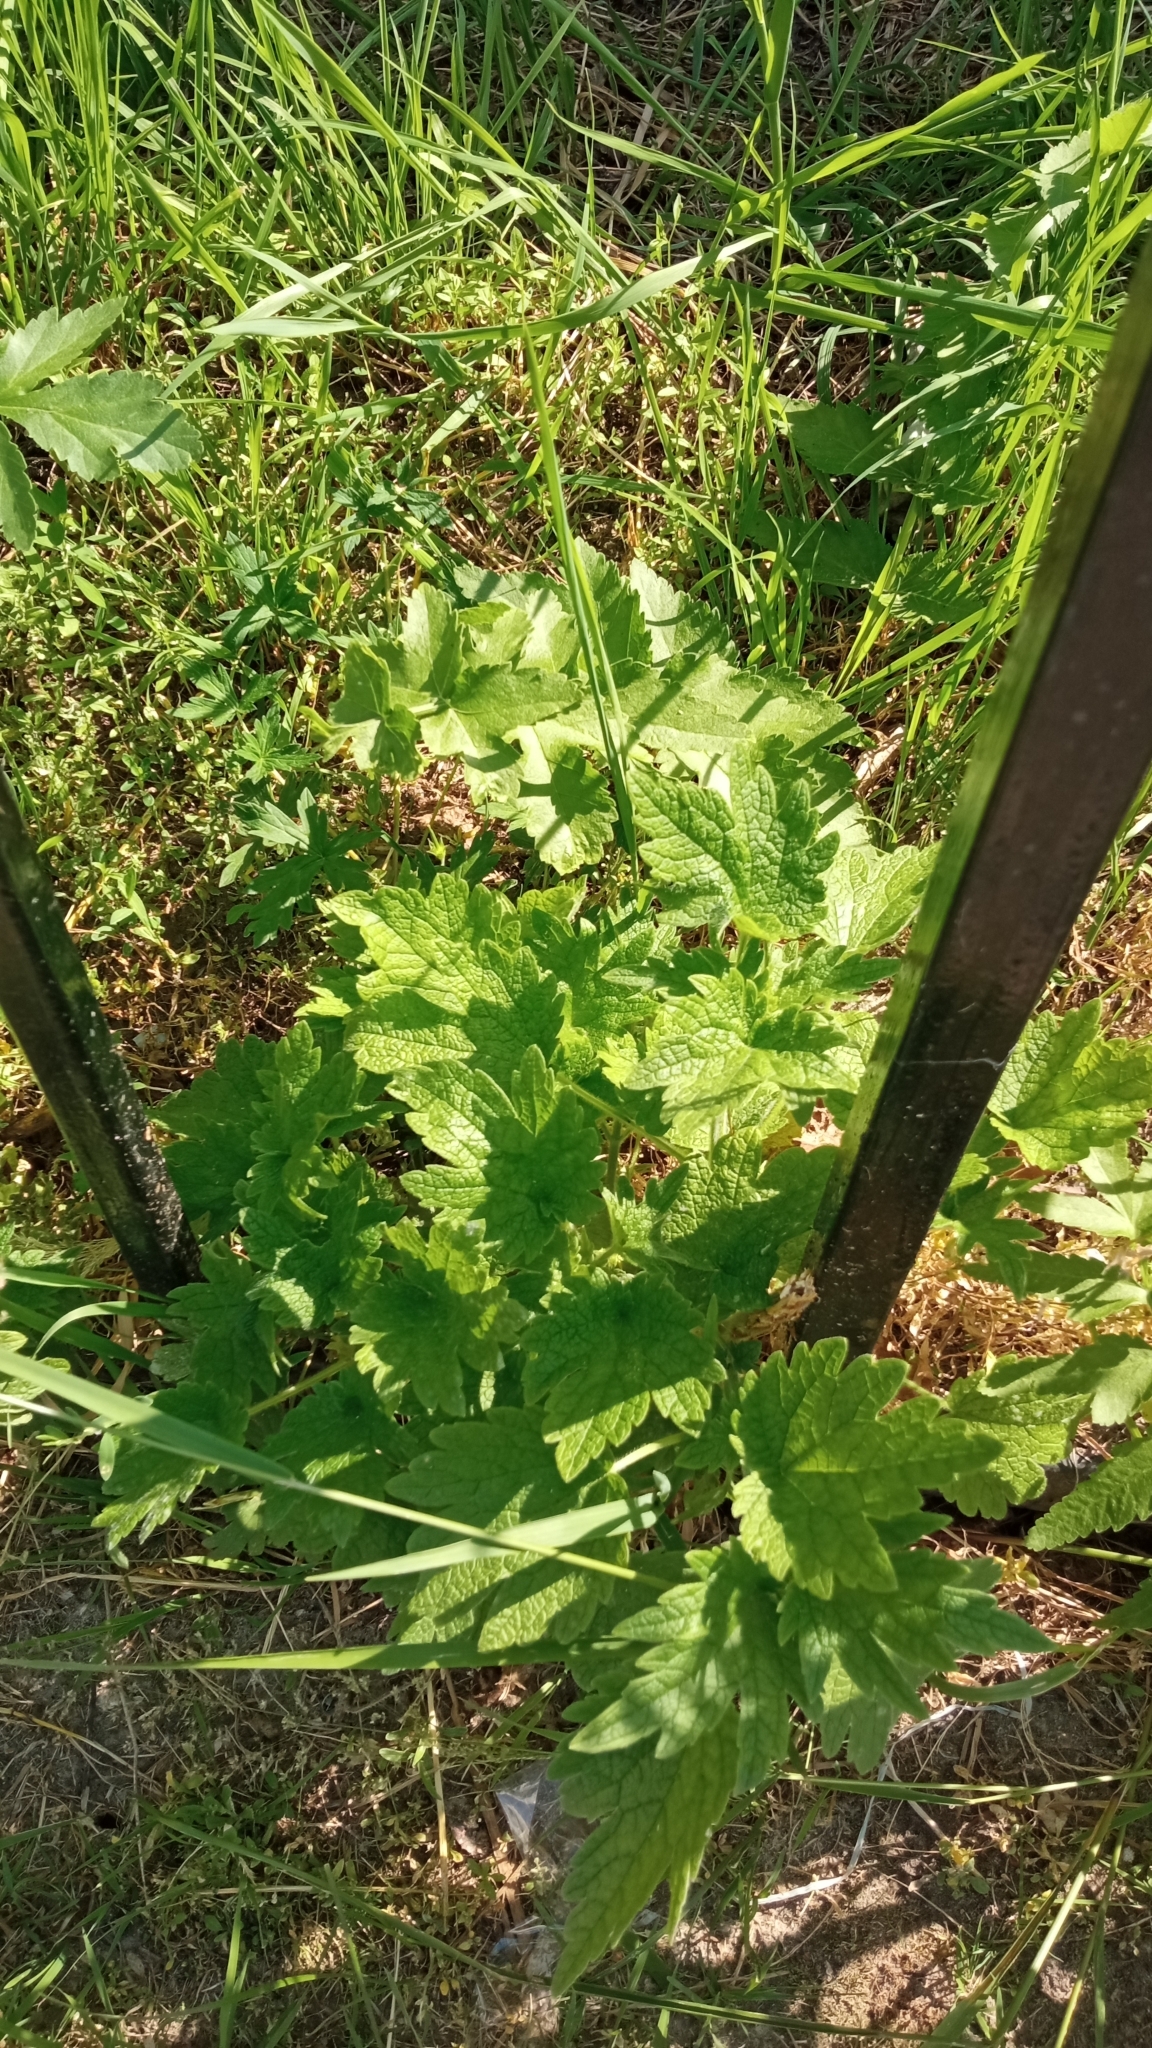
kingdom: Plantae
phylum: Tracheophyta
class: Magnoliopsida
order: Lamiales
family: Lamiaceae
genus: Leonurus
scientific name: Leonurus quinquelobatus
